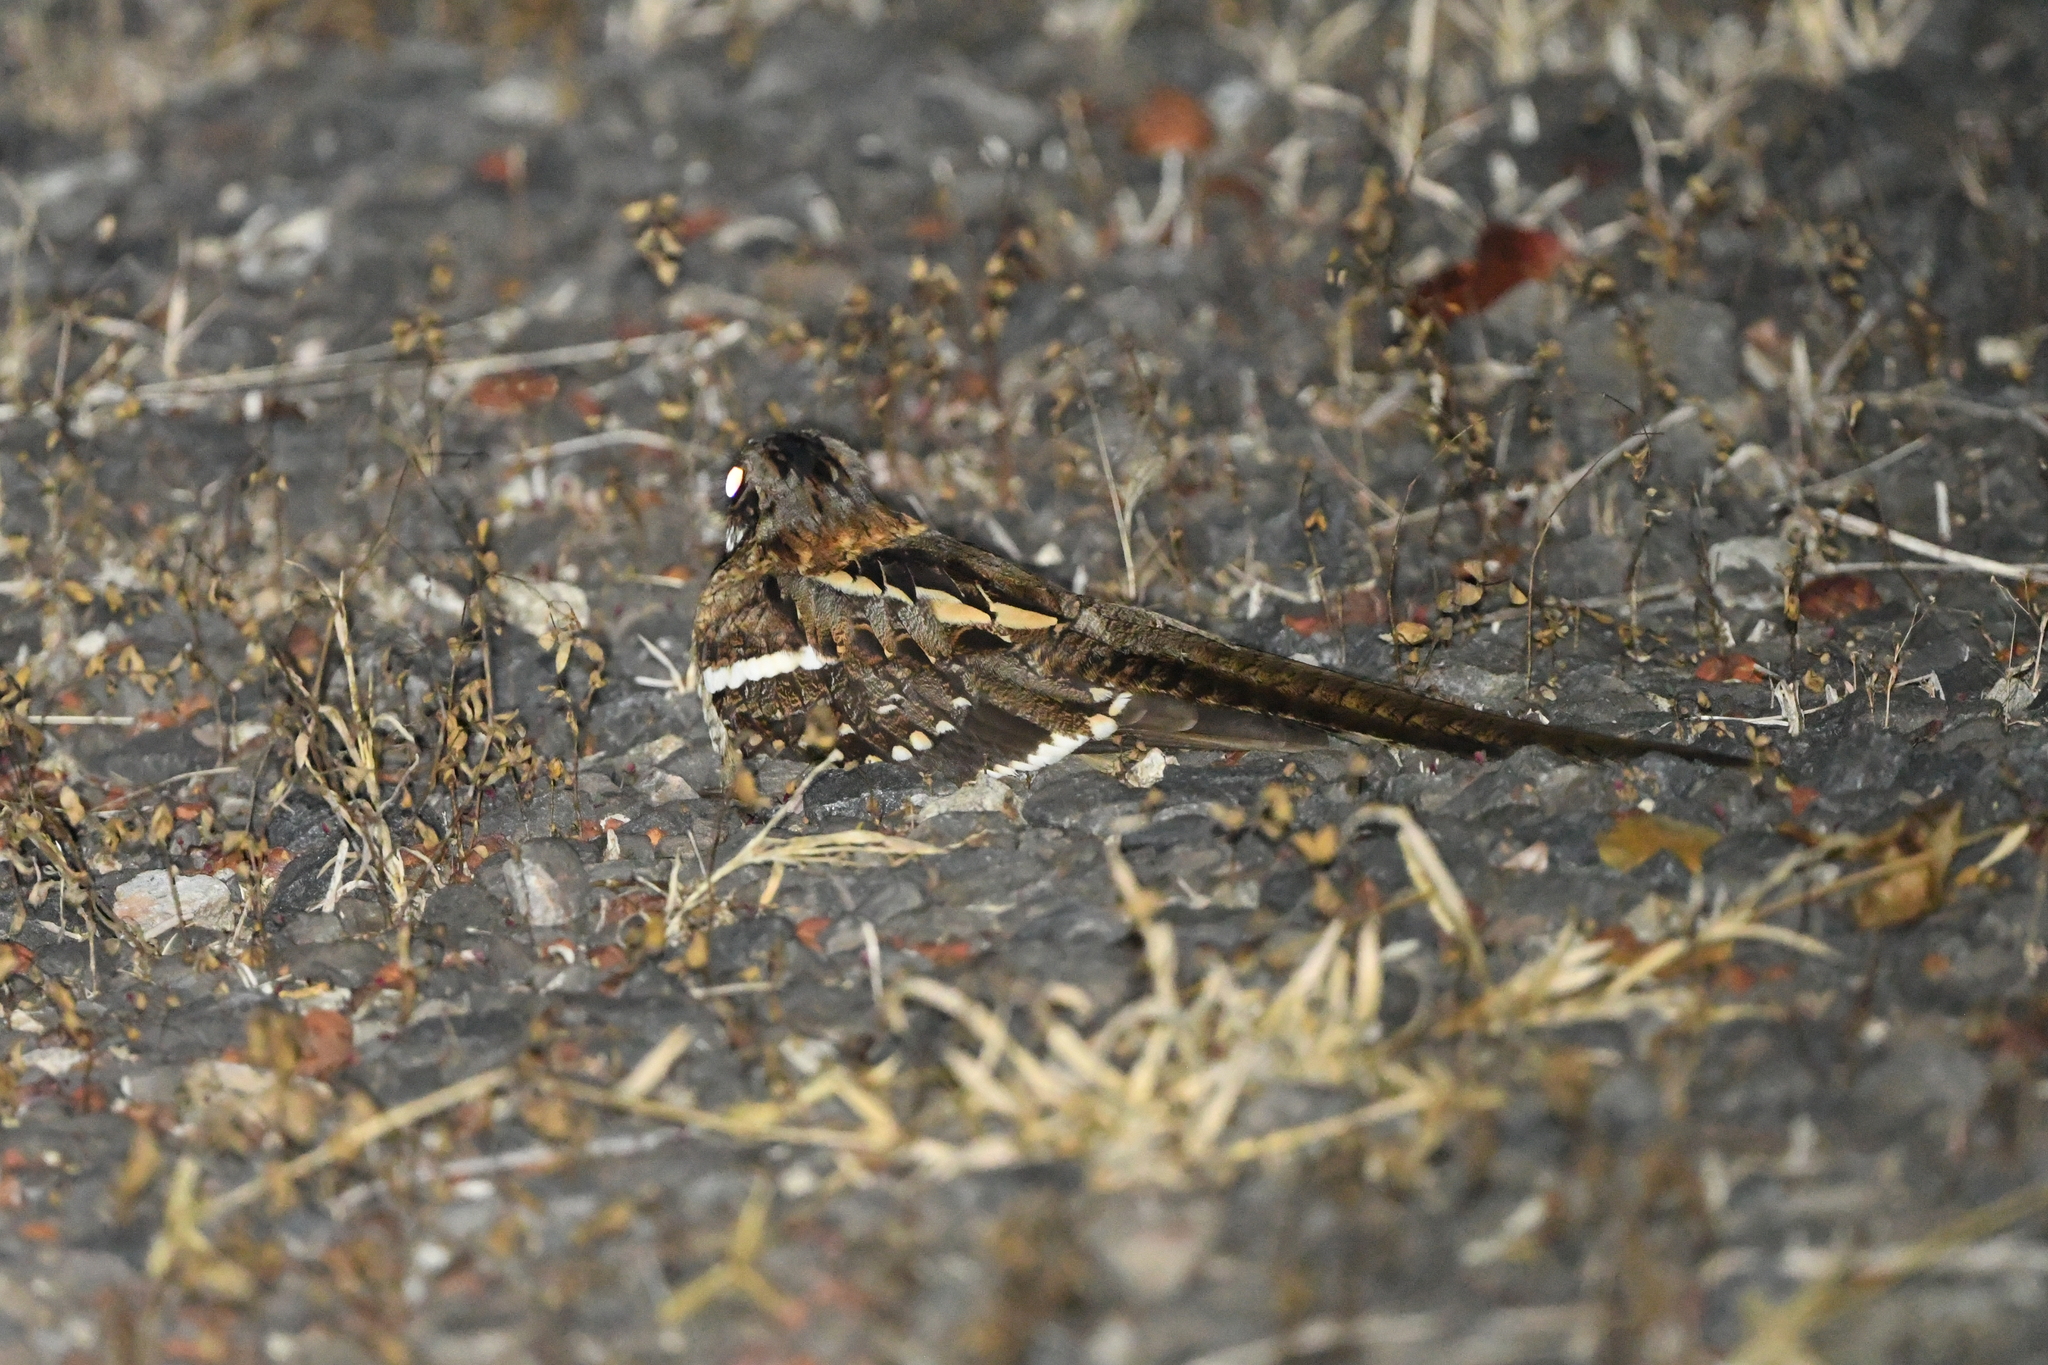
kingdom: Animalia
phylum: Chordata
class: Aves
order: Caprimulgiformes
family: Caprimulgidae
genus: Caprimulgus
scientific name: Caprimulgus climacurus
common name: Long-tailed nightjar
